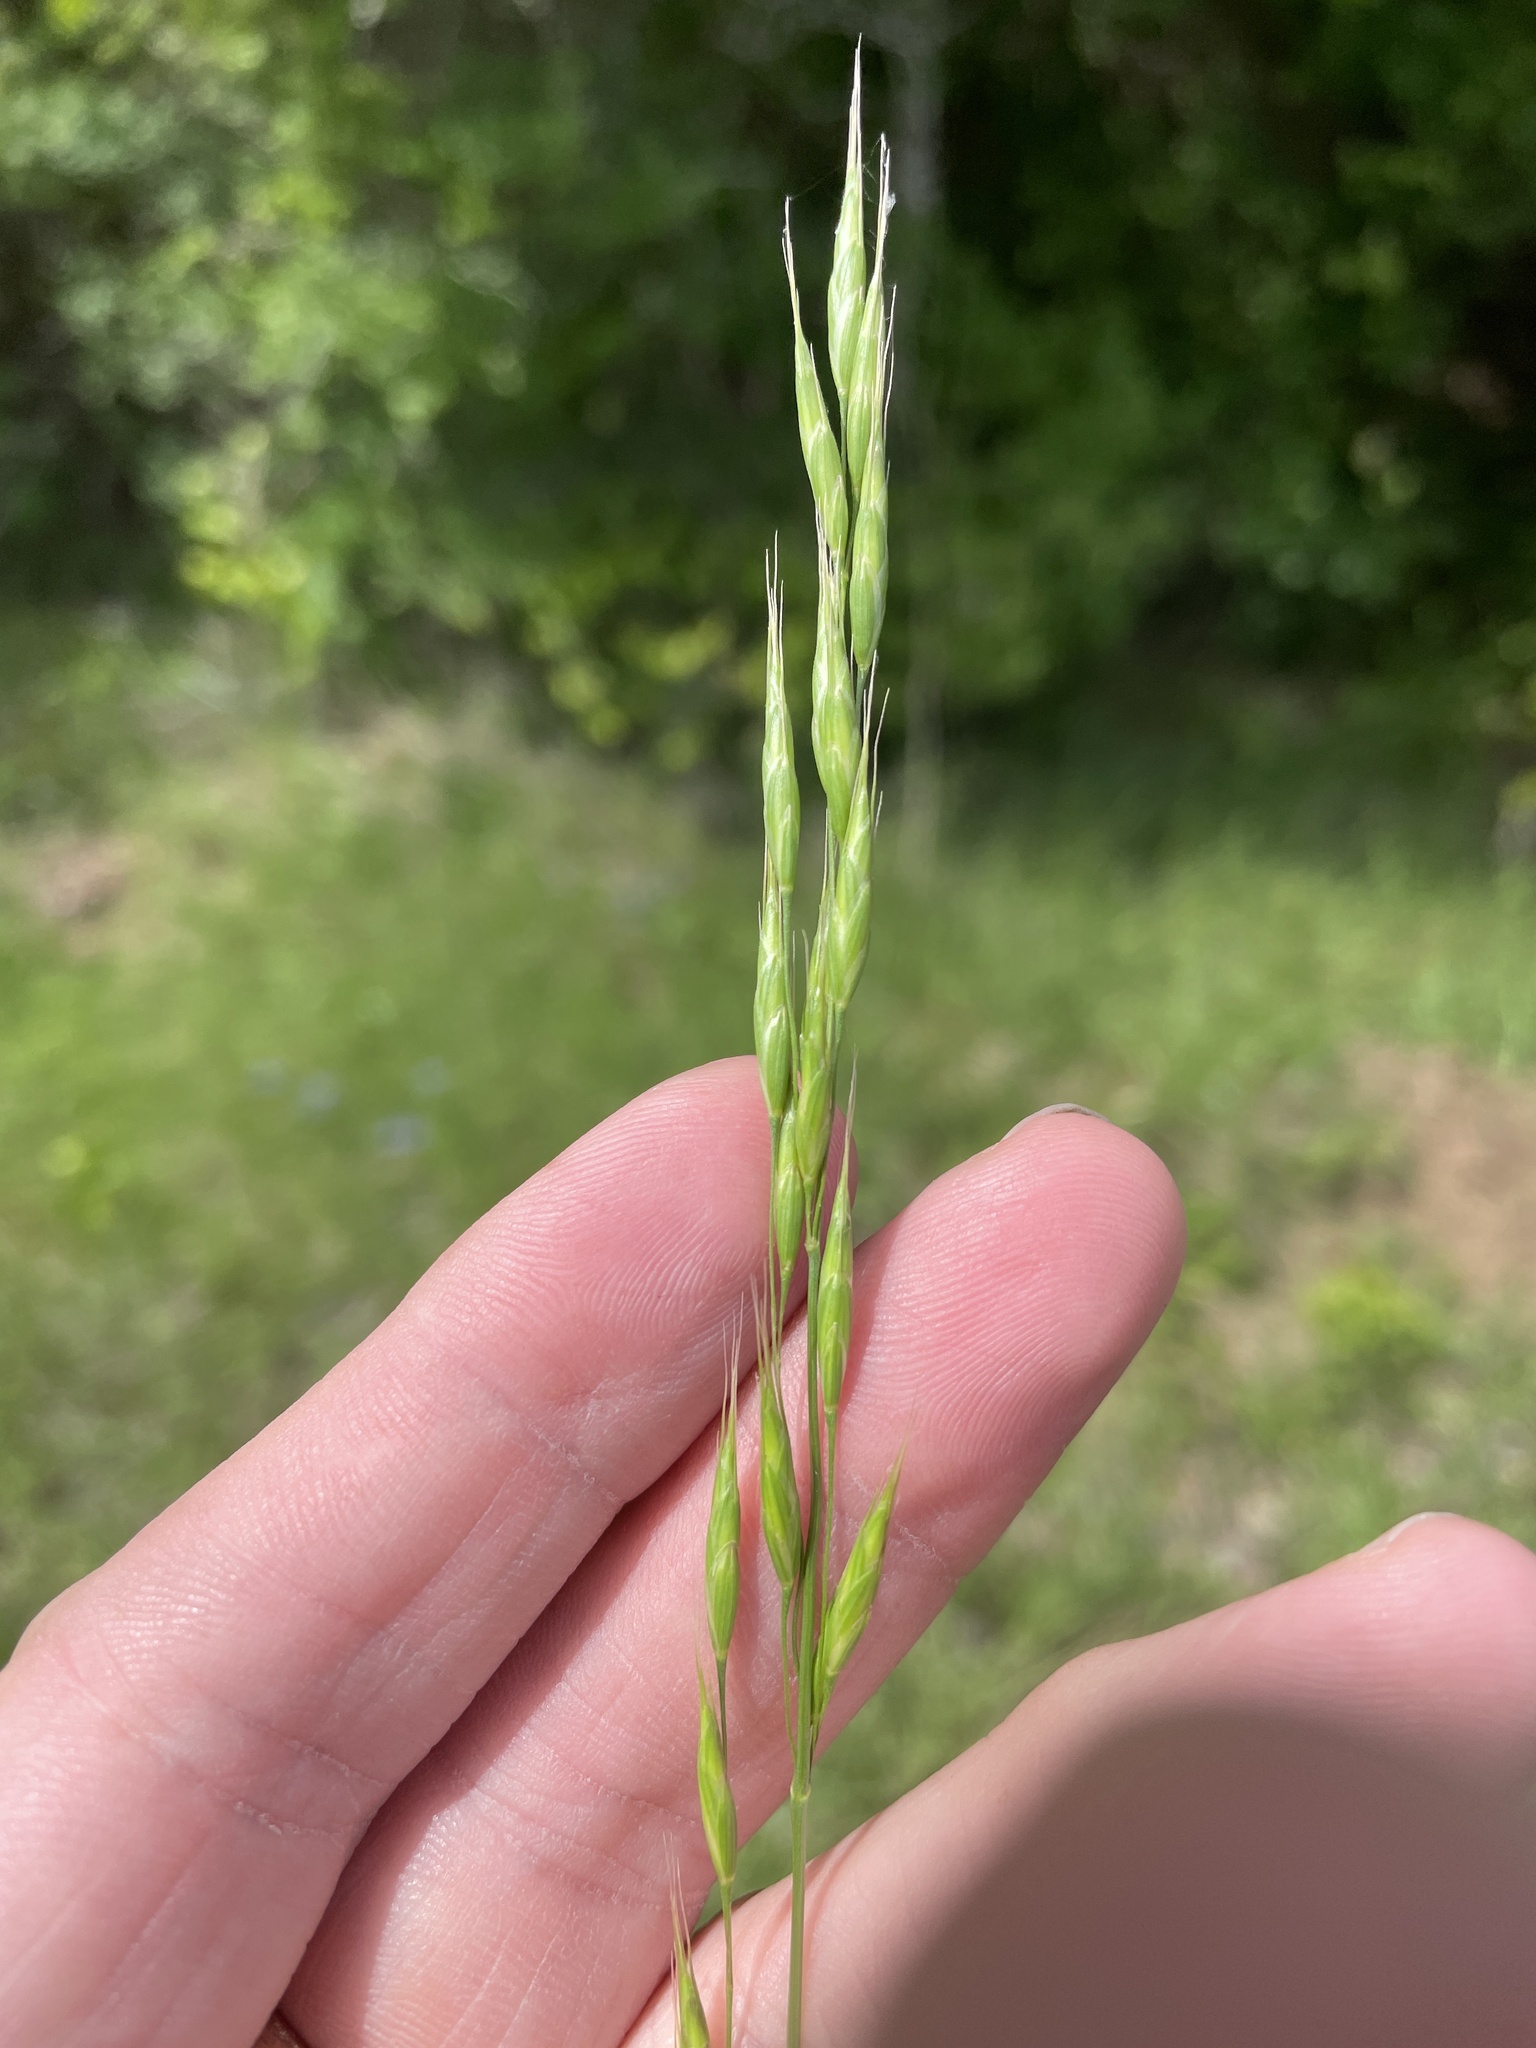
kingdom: Plantae
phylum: Tracheophyta
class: Liliopsida
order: Poales
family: Poaceae
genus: Bromus
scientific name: Bromus japonicus
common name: Japanese brome
